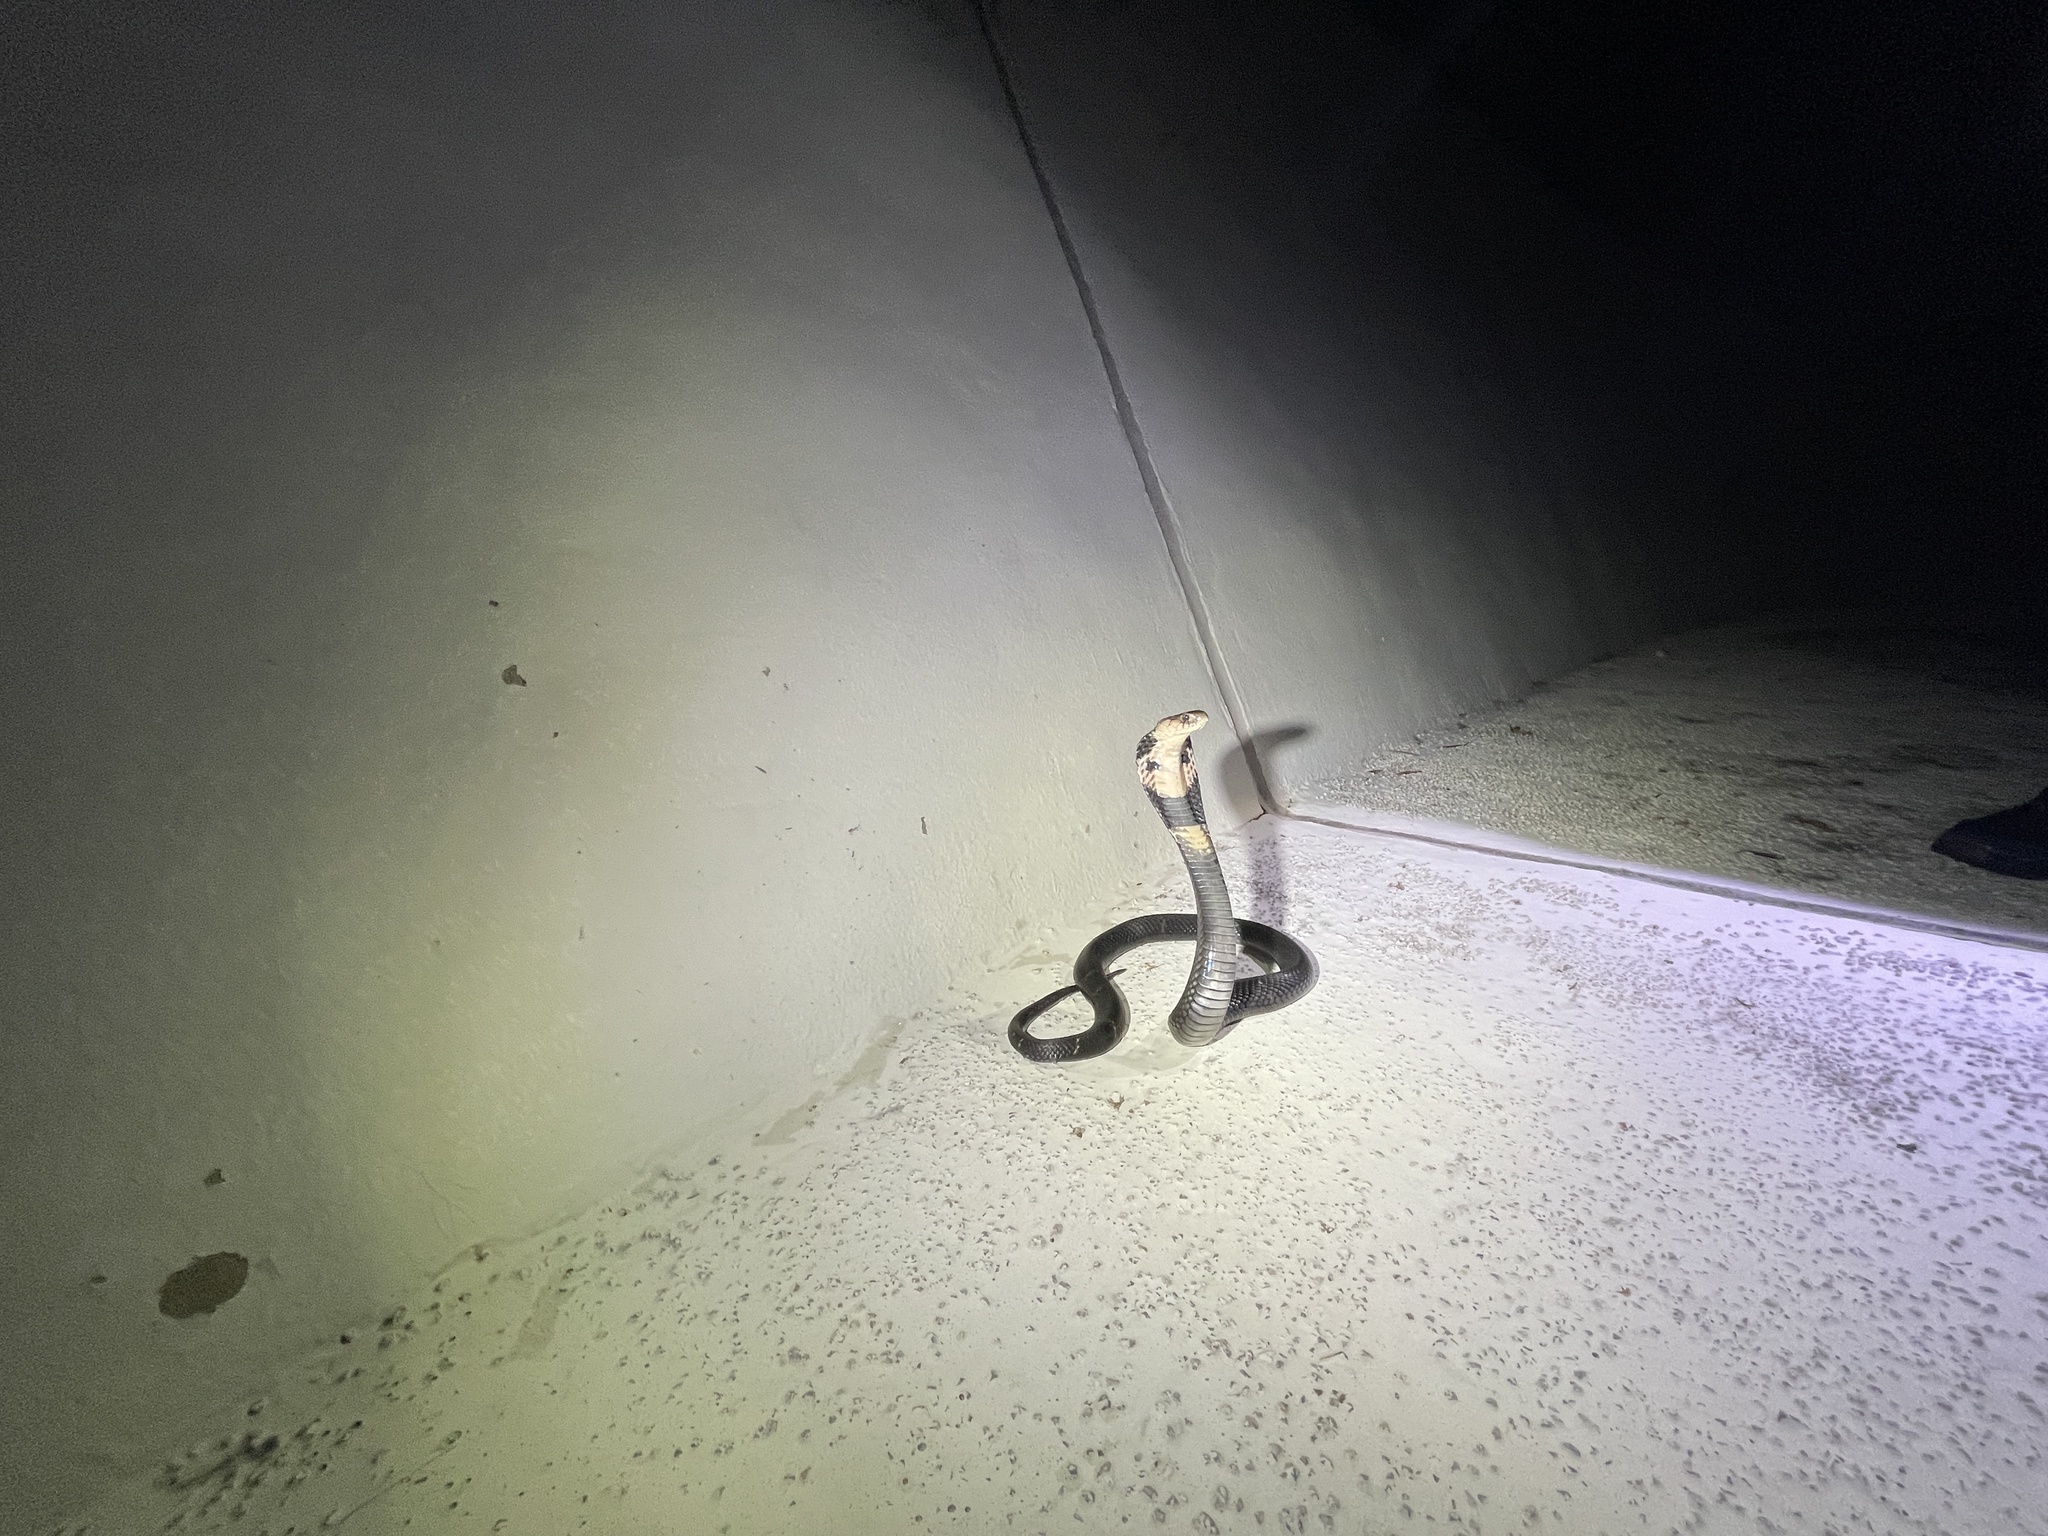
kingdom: Animalia
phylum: Chordata
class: Squamata
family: Elapidae
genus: Naja
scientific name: Naja atra
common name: Chinese cobra
